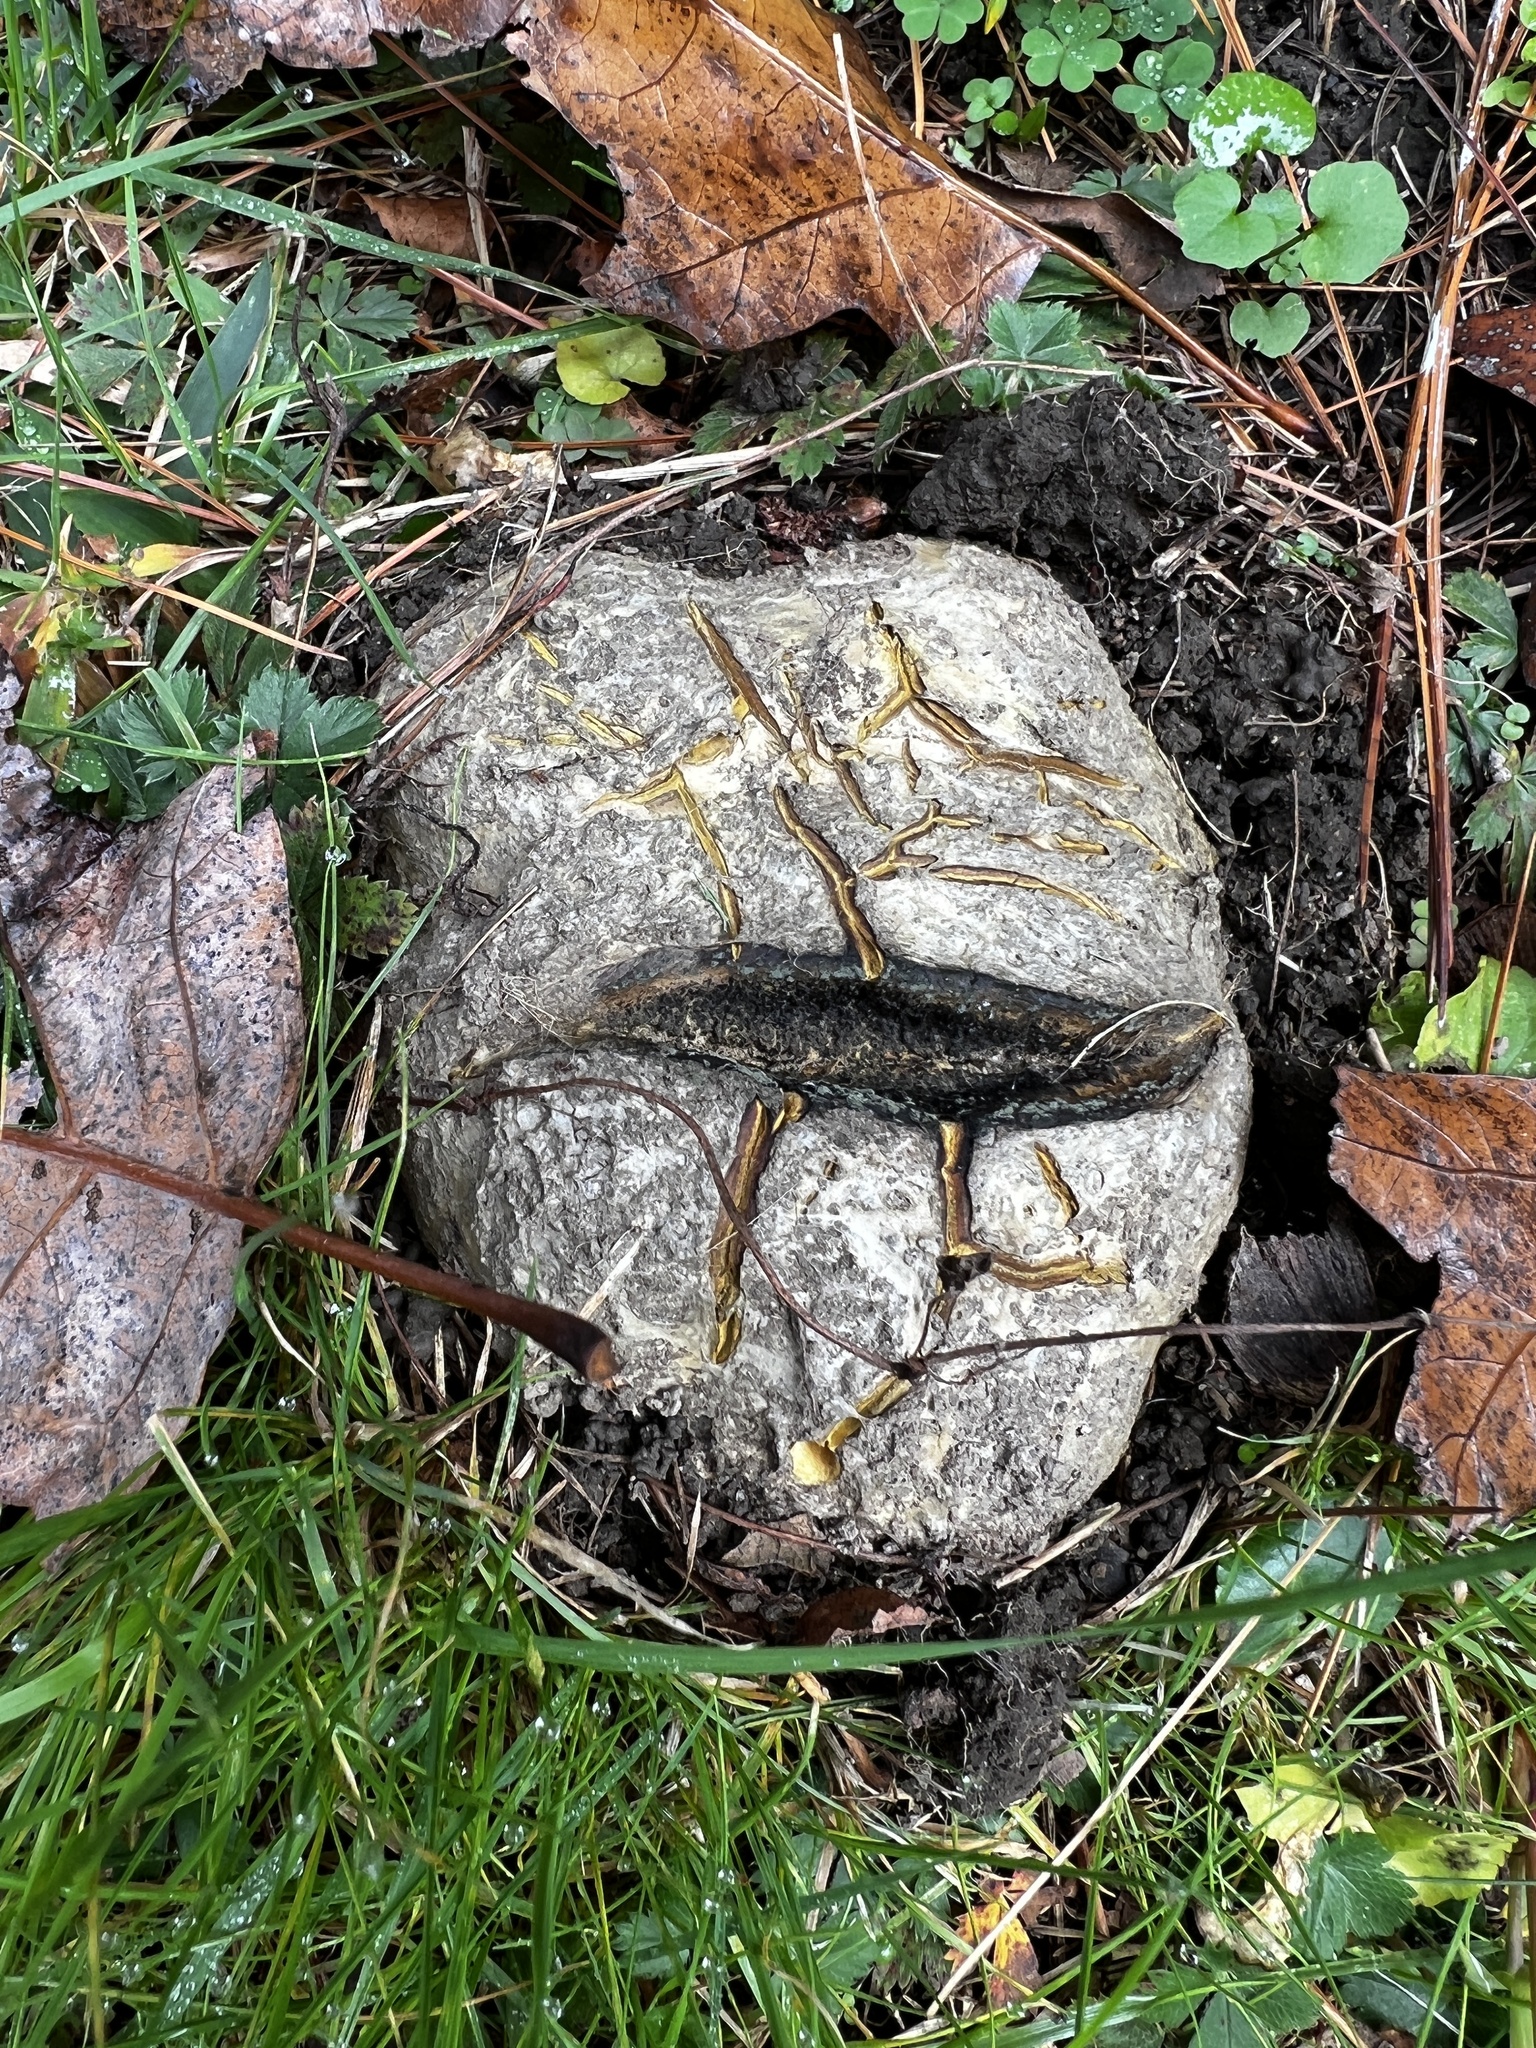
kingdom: Fungi
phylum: Basidiomycota
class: Agaricomycetes
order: Boletales
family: Sclerodermataceae
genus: Scleroderma
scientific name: Scleroderma polyrhizum
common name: Many-rooted earthball
